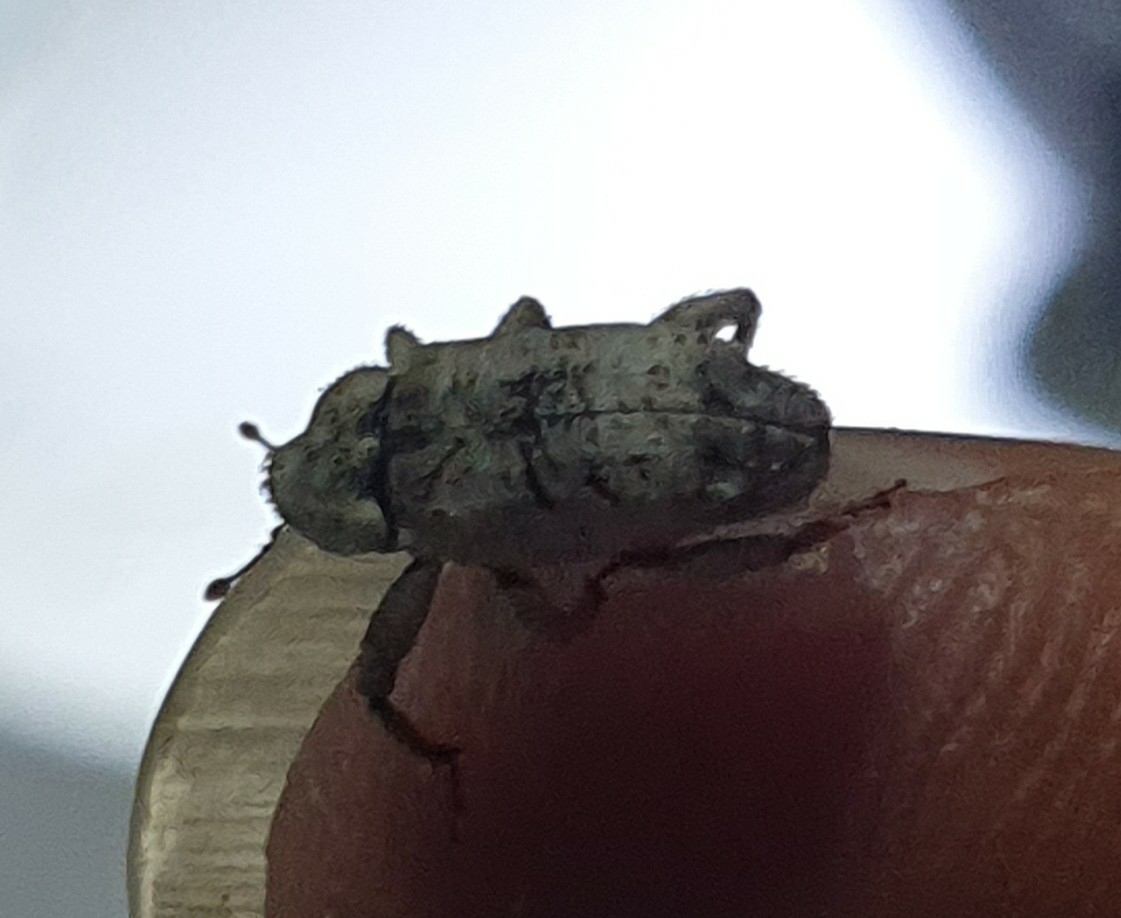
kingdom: Animalia
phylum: Arthropoda
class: Insecta
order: Coleoptera
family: Curculionidae
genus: Mitrastethus
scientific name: Mitrastethus baridioides
